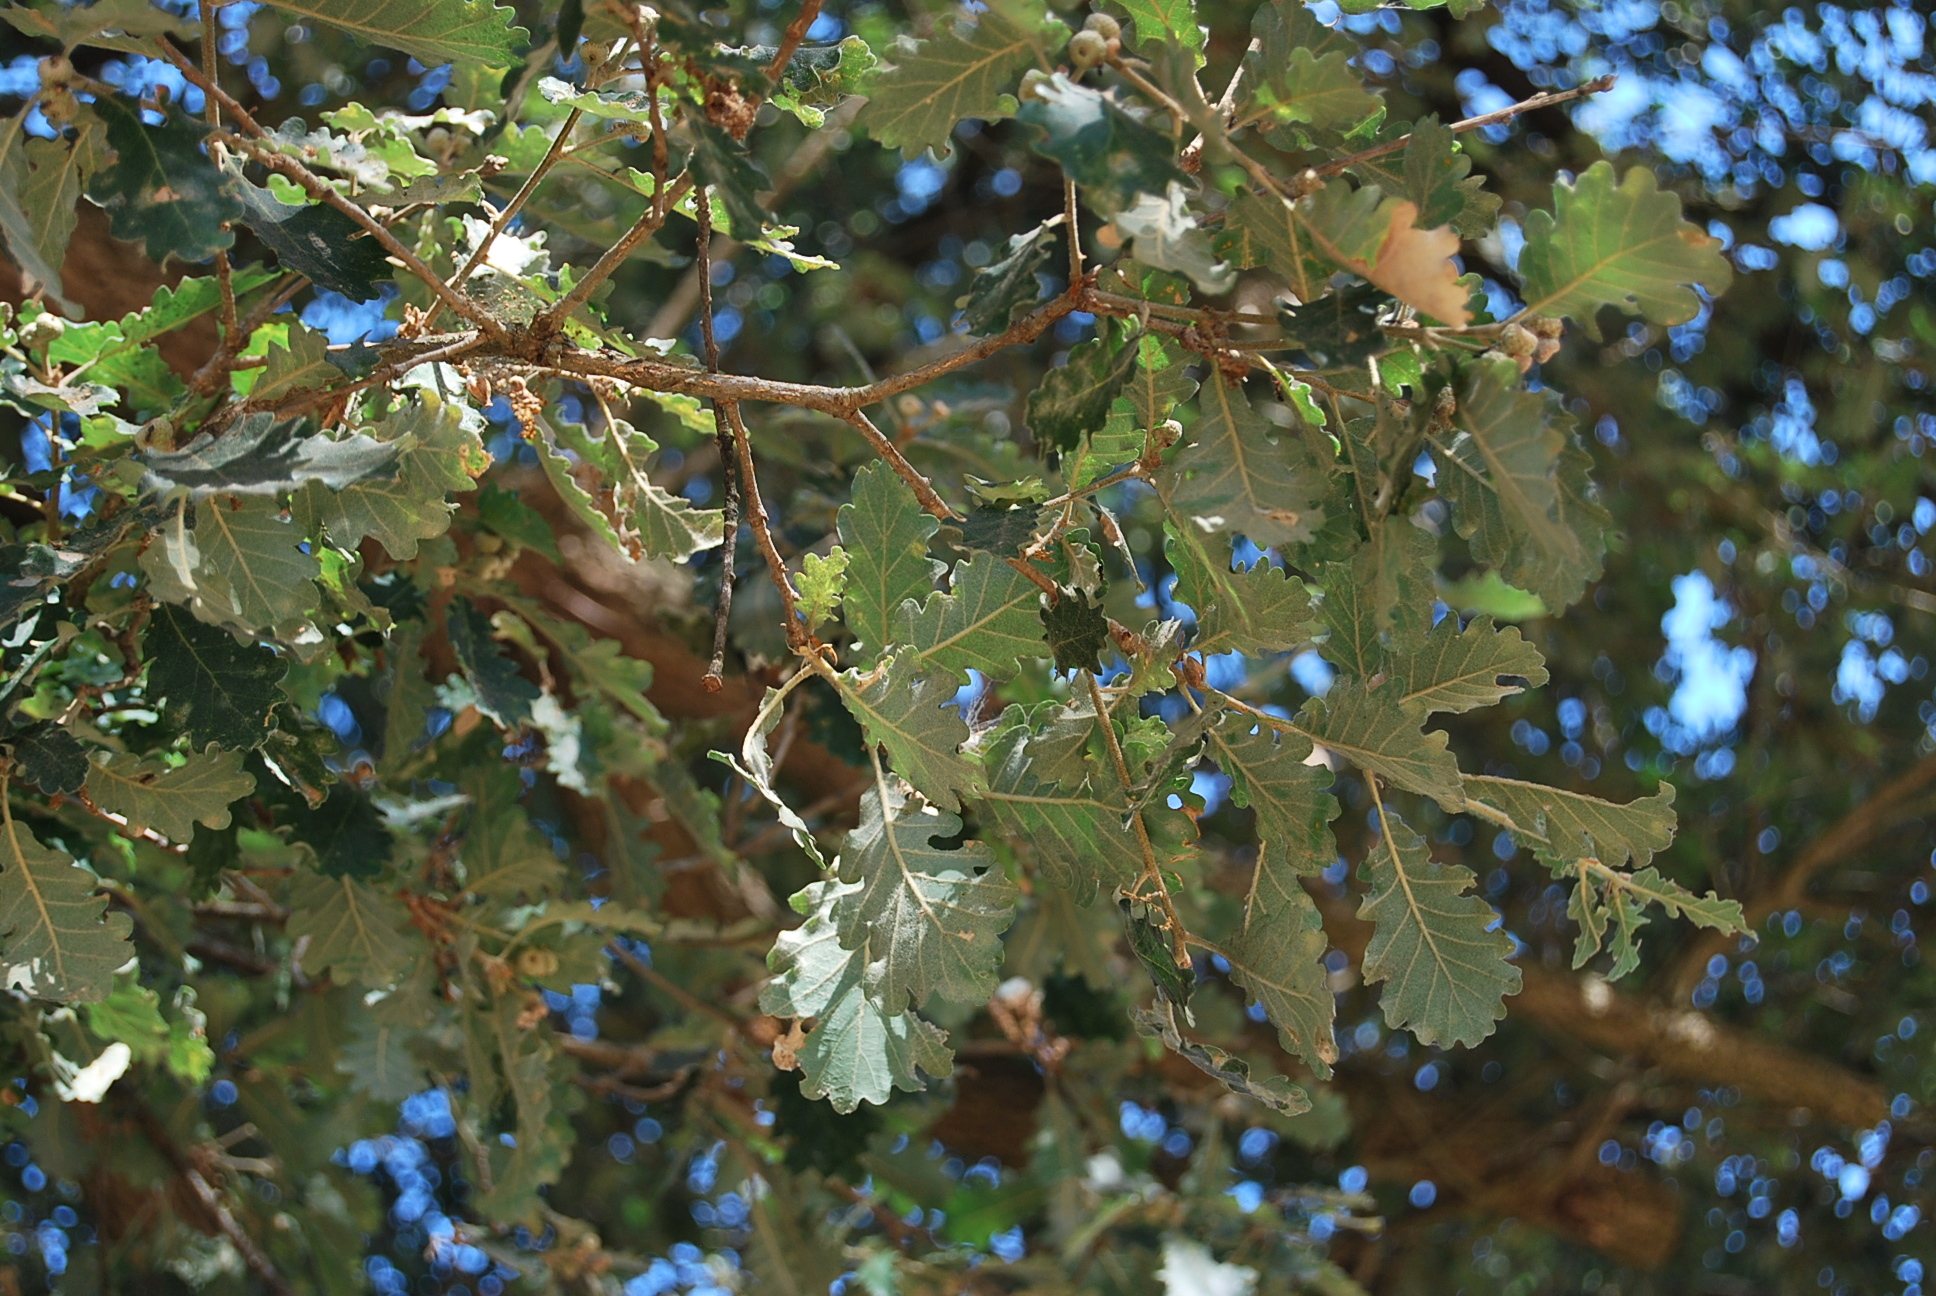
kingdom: Plantae
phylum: Tracheophyta
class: Magnoliopsida
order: Fagales
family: Fagaceae
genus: Quercus
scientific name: Quercus pubescens
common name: Downy oak
